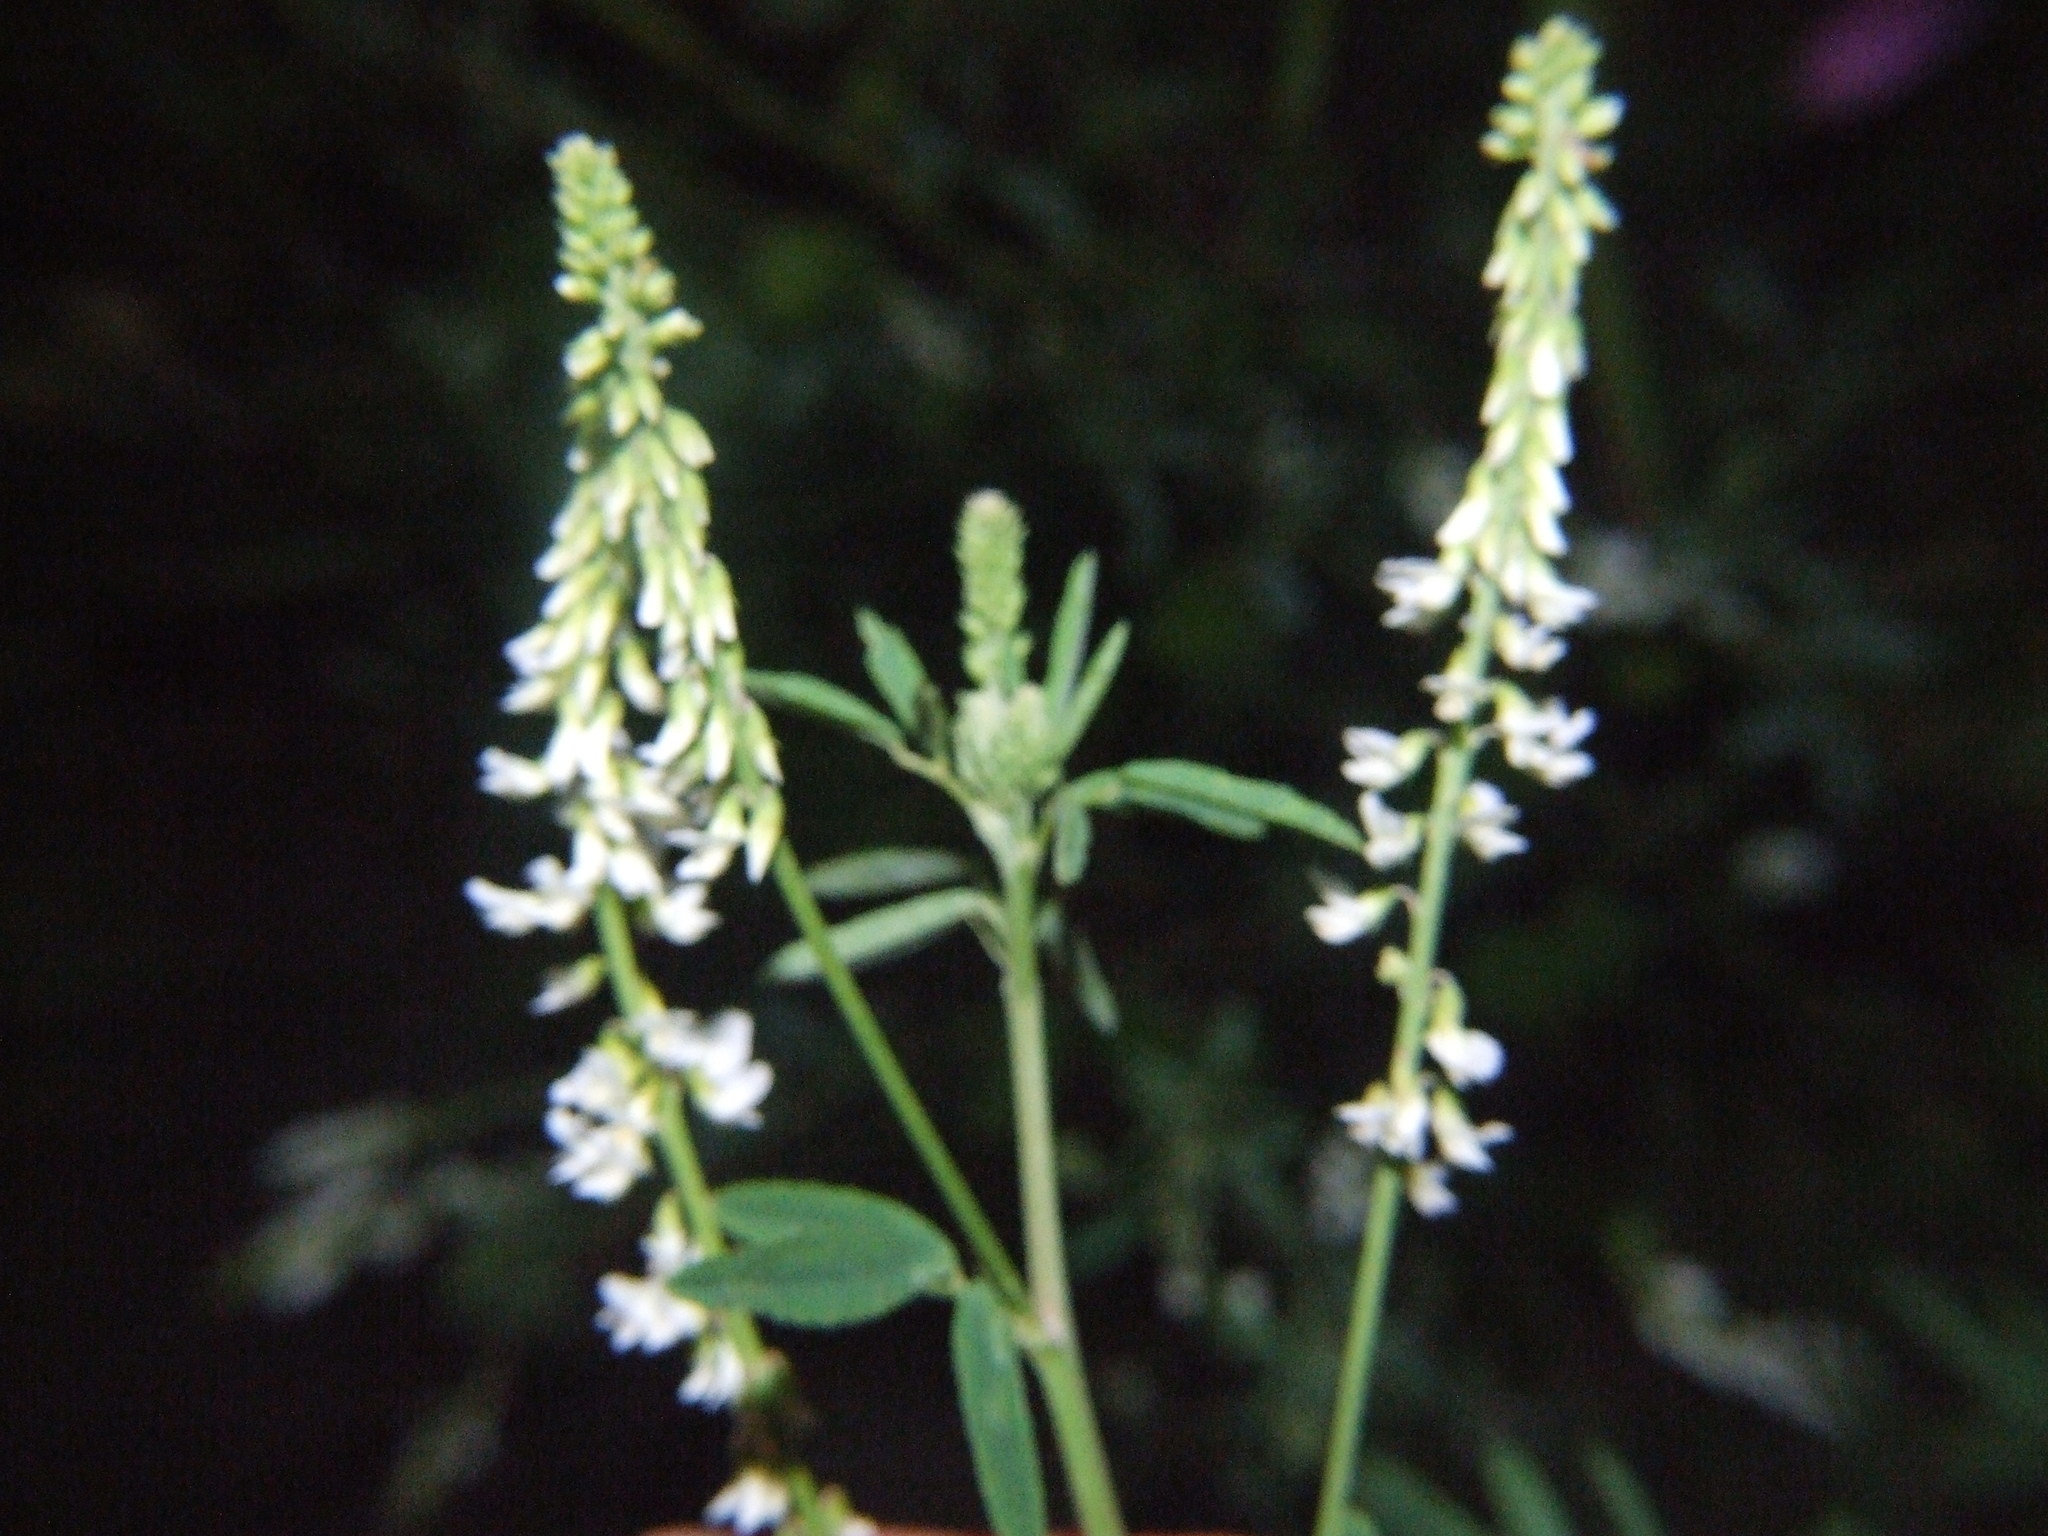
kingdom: Plantae
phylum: Tracheophyta
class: Magnoliopsida
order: Fabales
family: Fabaceae
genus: Melilotus
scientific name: Melilotus albus
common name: White melilot
